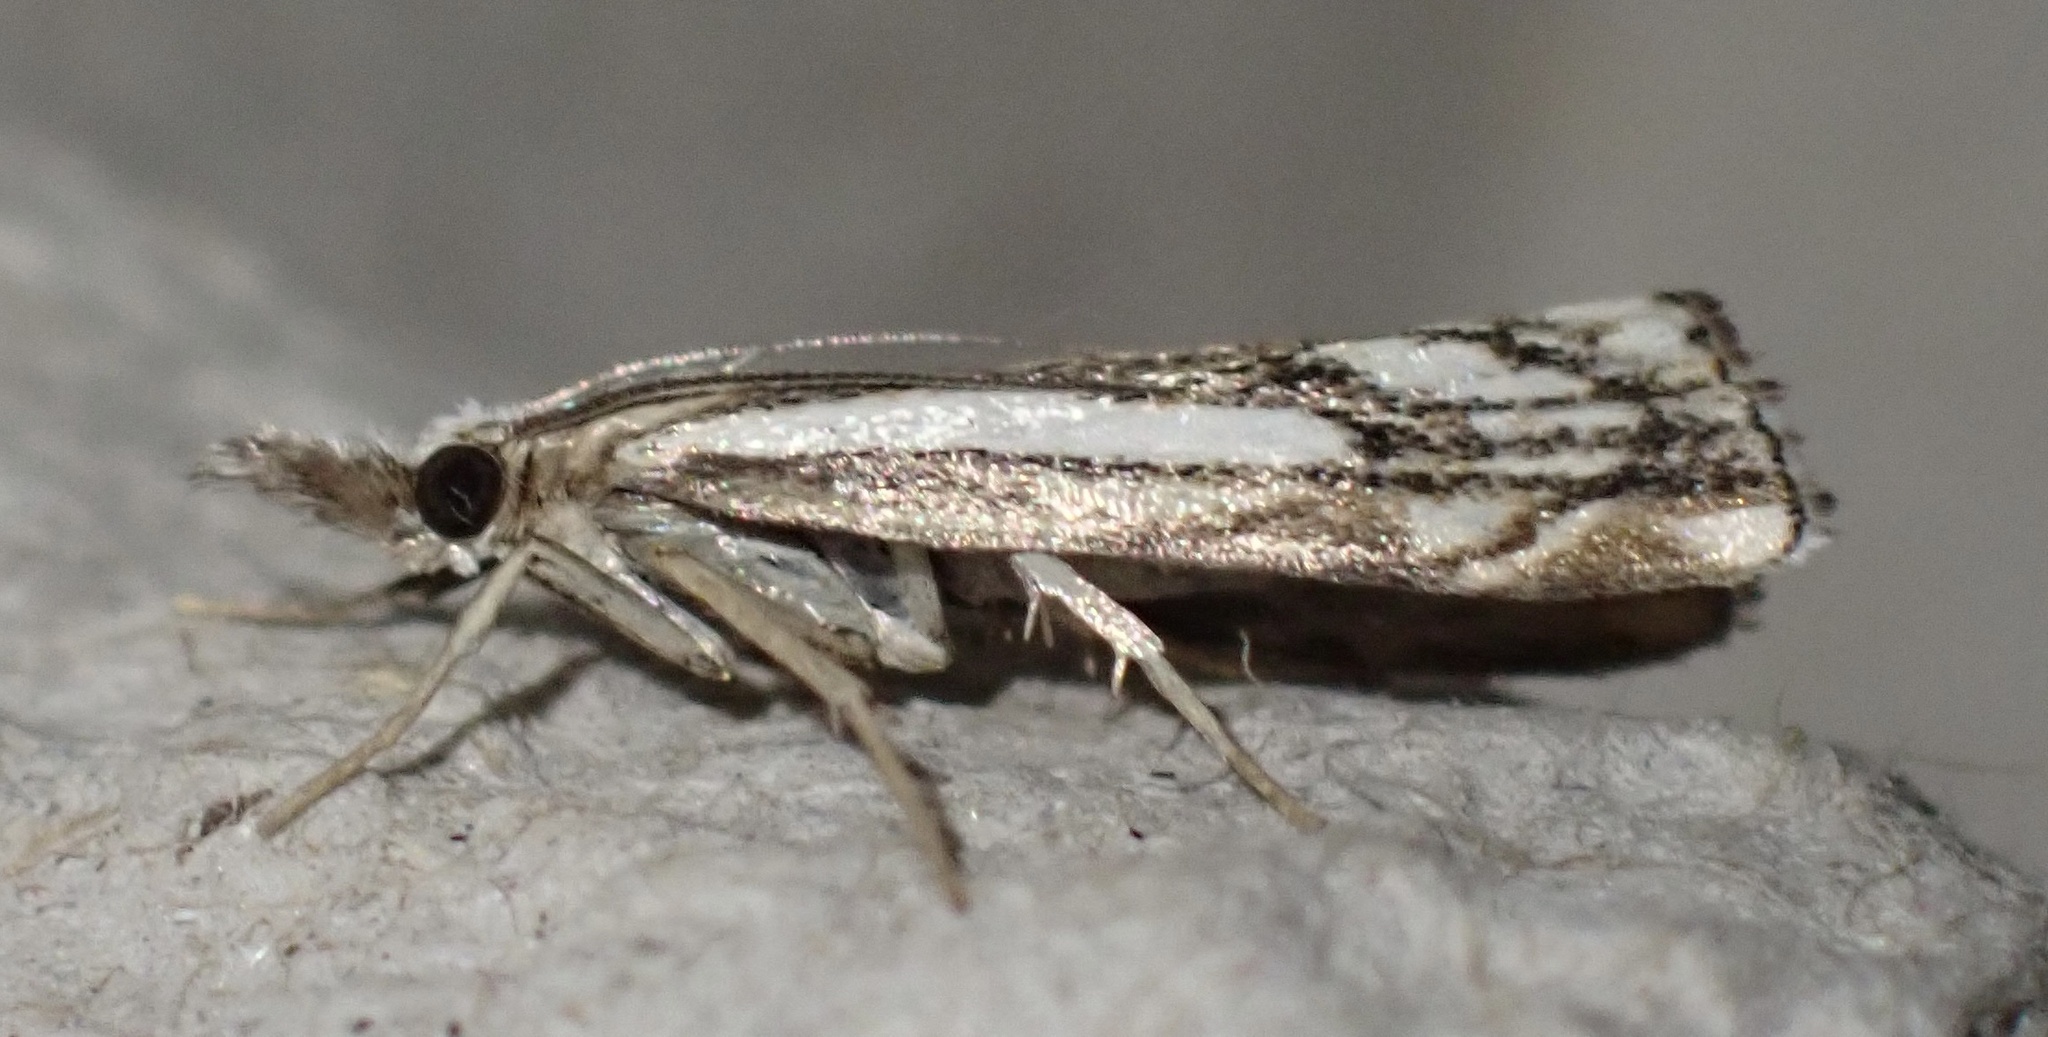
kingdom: Animalia
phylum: Arthropoda
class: Insecta
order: Lepidoptera
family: Crambidae
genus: Catoptria
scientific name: Catoptria falsella
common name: Chequered grass-veneer
